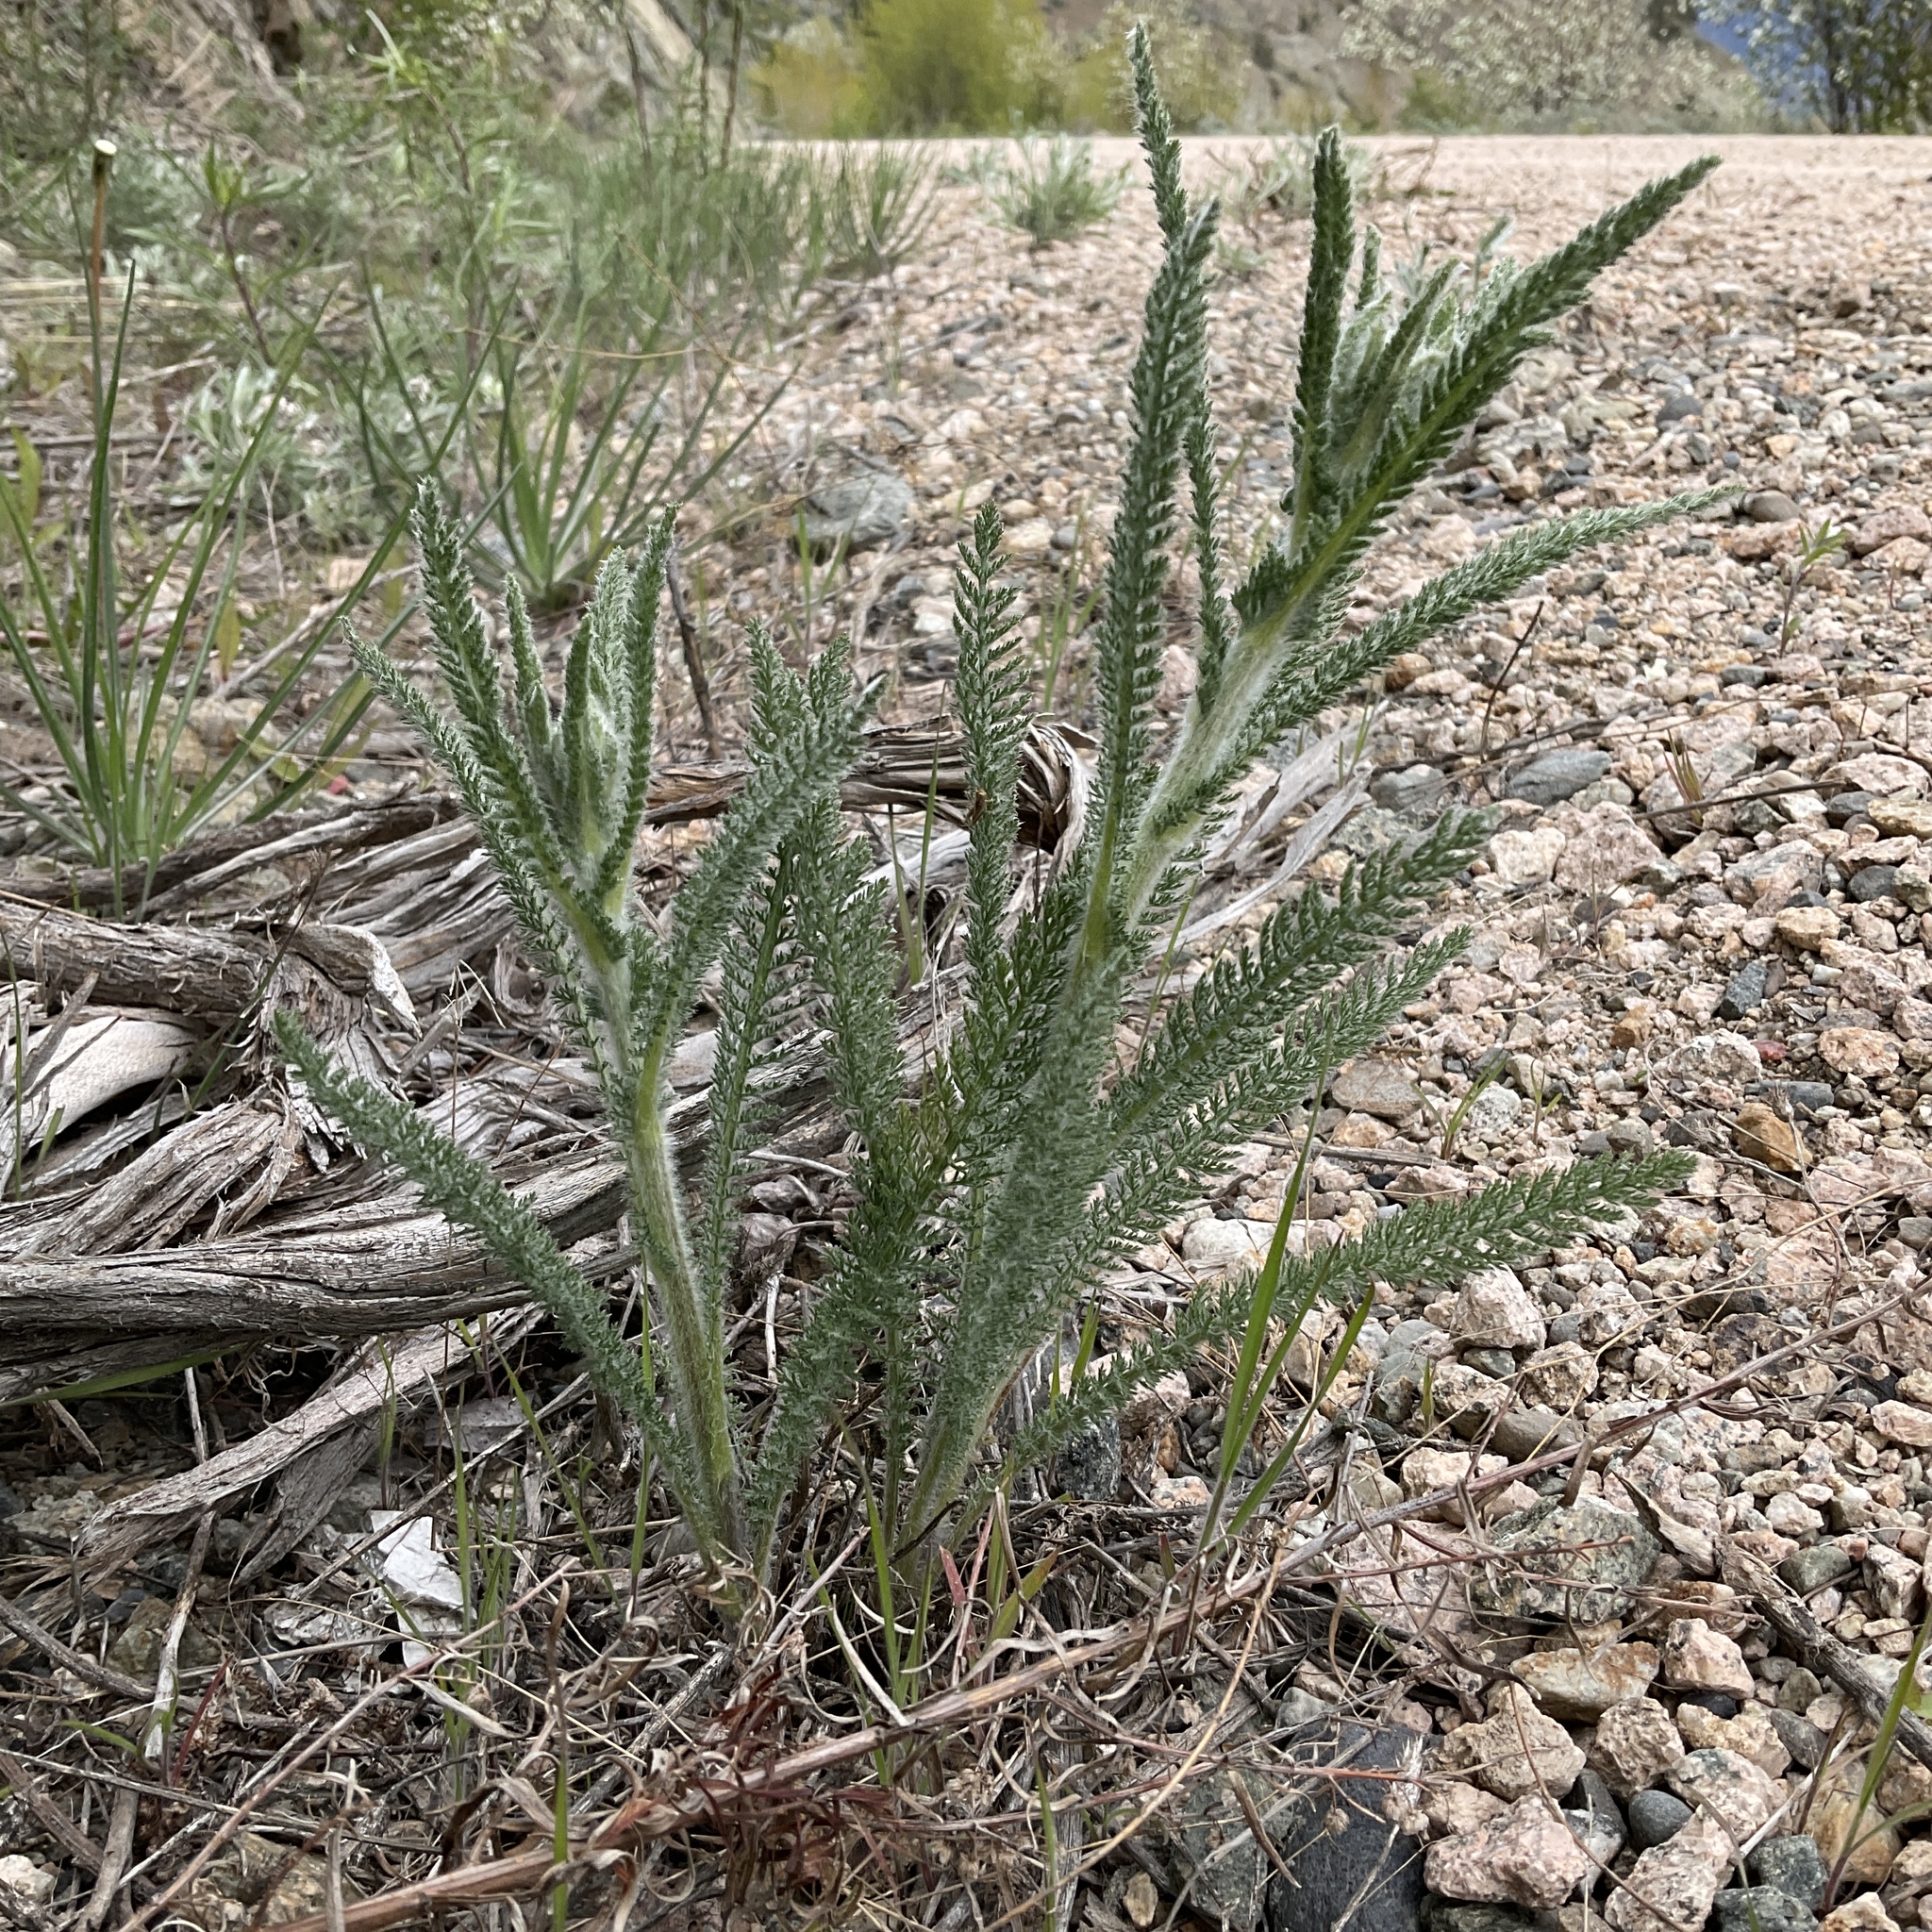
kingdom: Plantae
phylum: Tracheophyta
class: Magnoliopsida
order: Asterales
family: Asteraceae
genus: Achillea
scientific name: Achillea millefolium
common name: Yarrow
